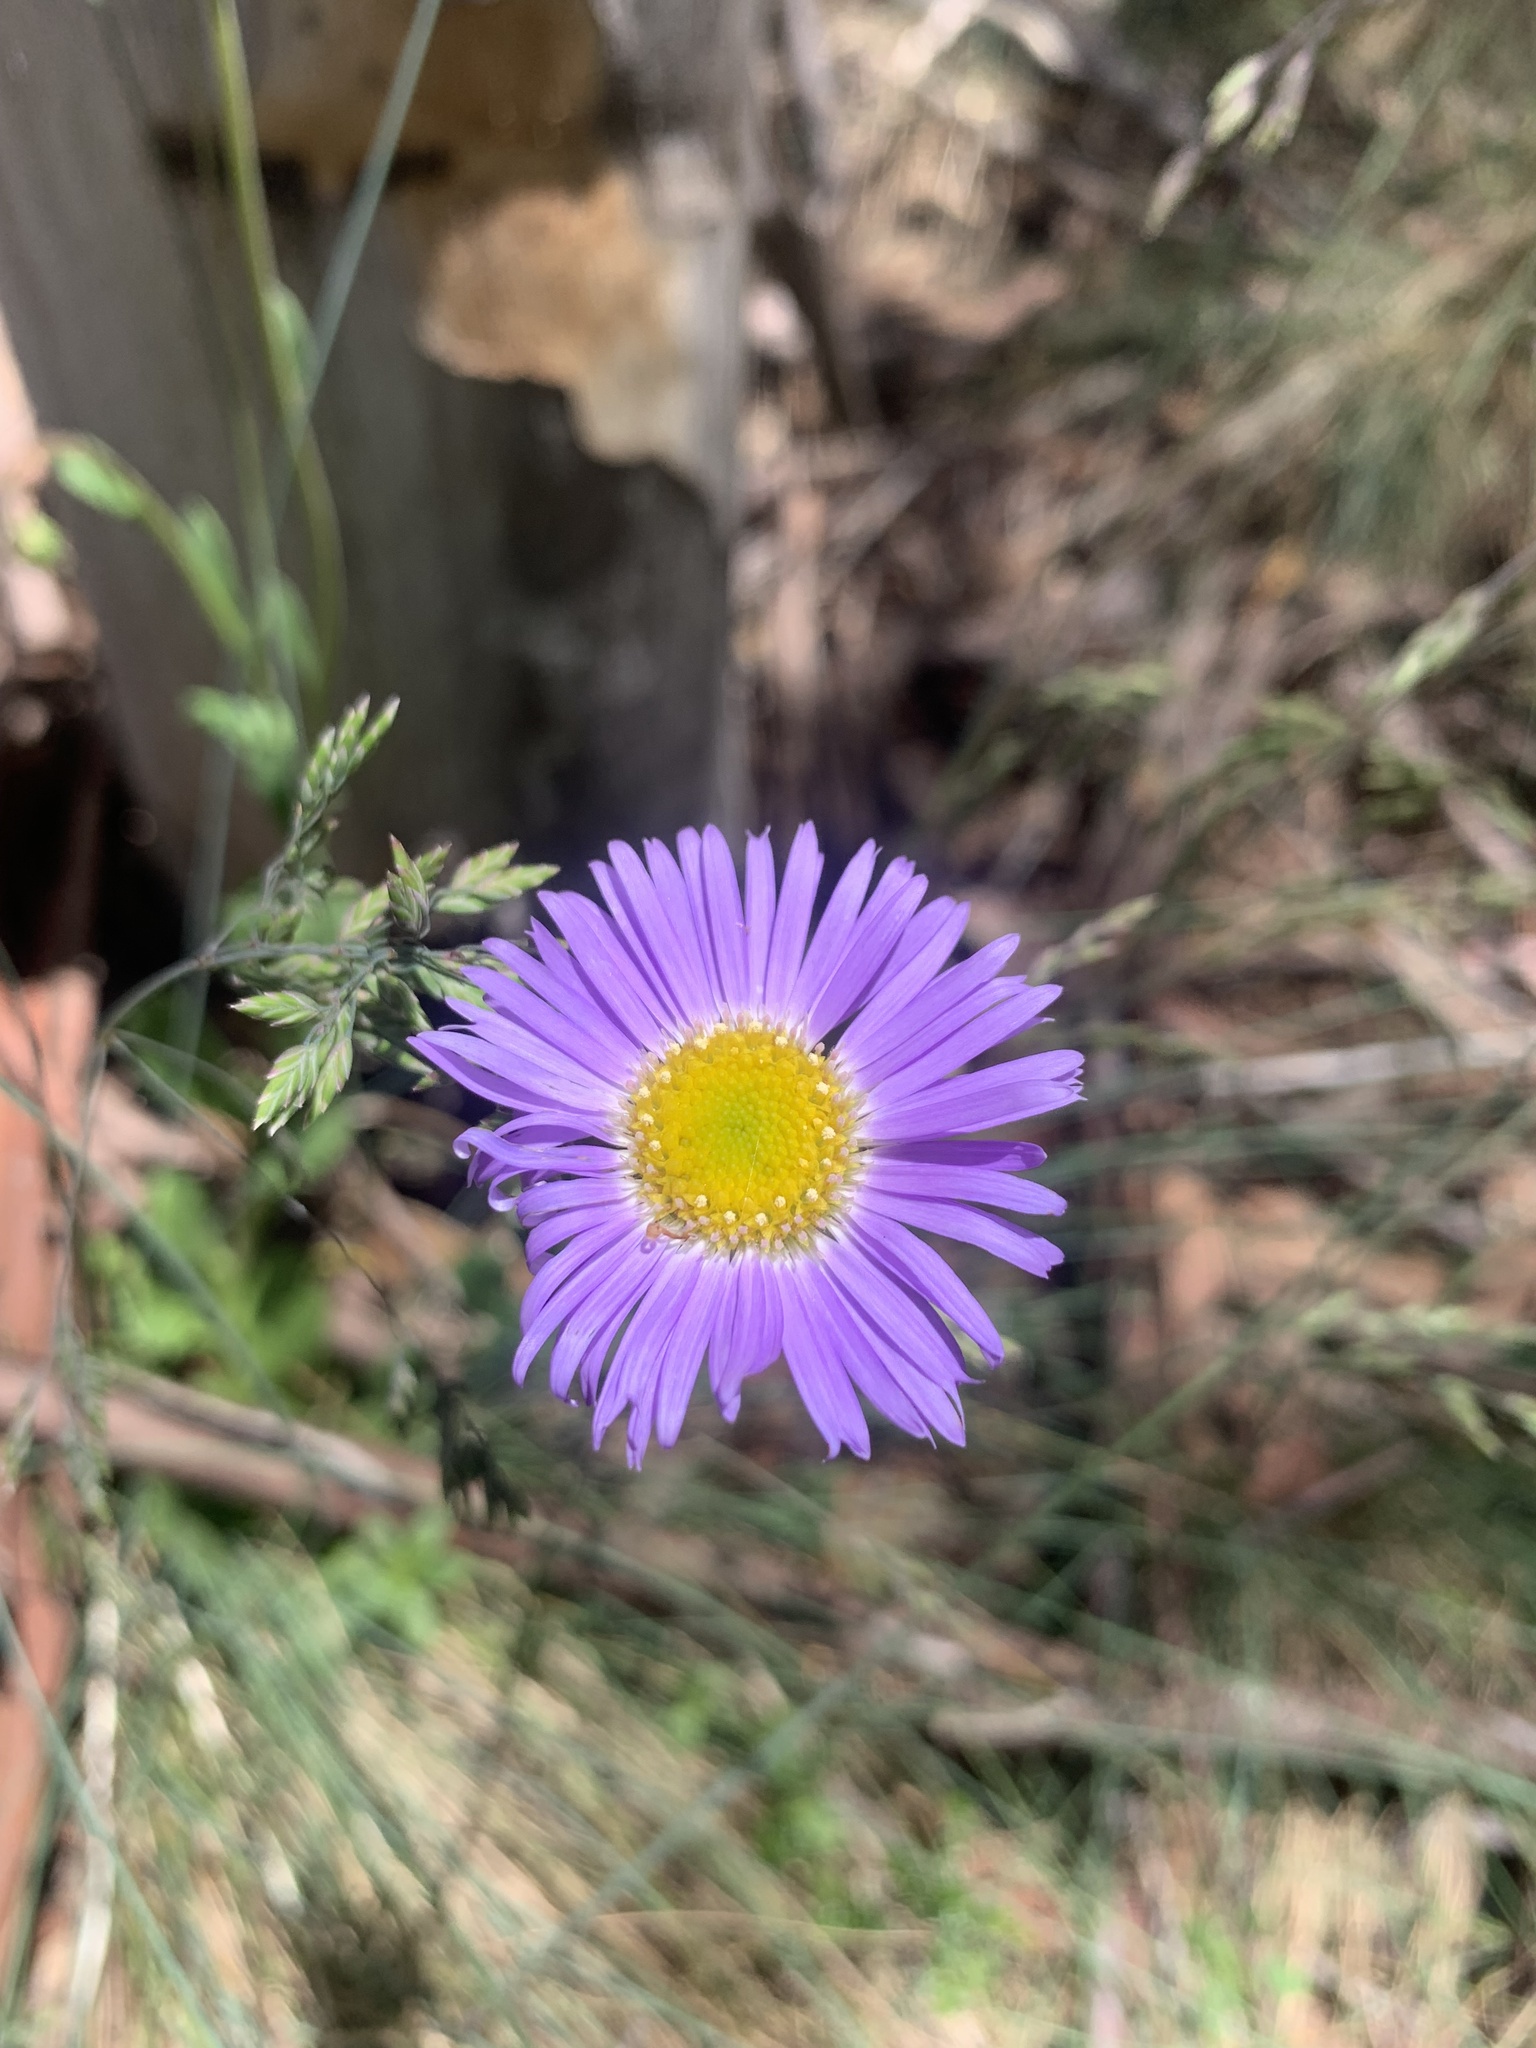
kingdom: Plantae
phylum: Tracheophyta
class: Magnoliopsida
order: Asterales
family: Asteraceae
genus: Brachyscome
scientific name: Brachyscome
